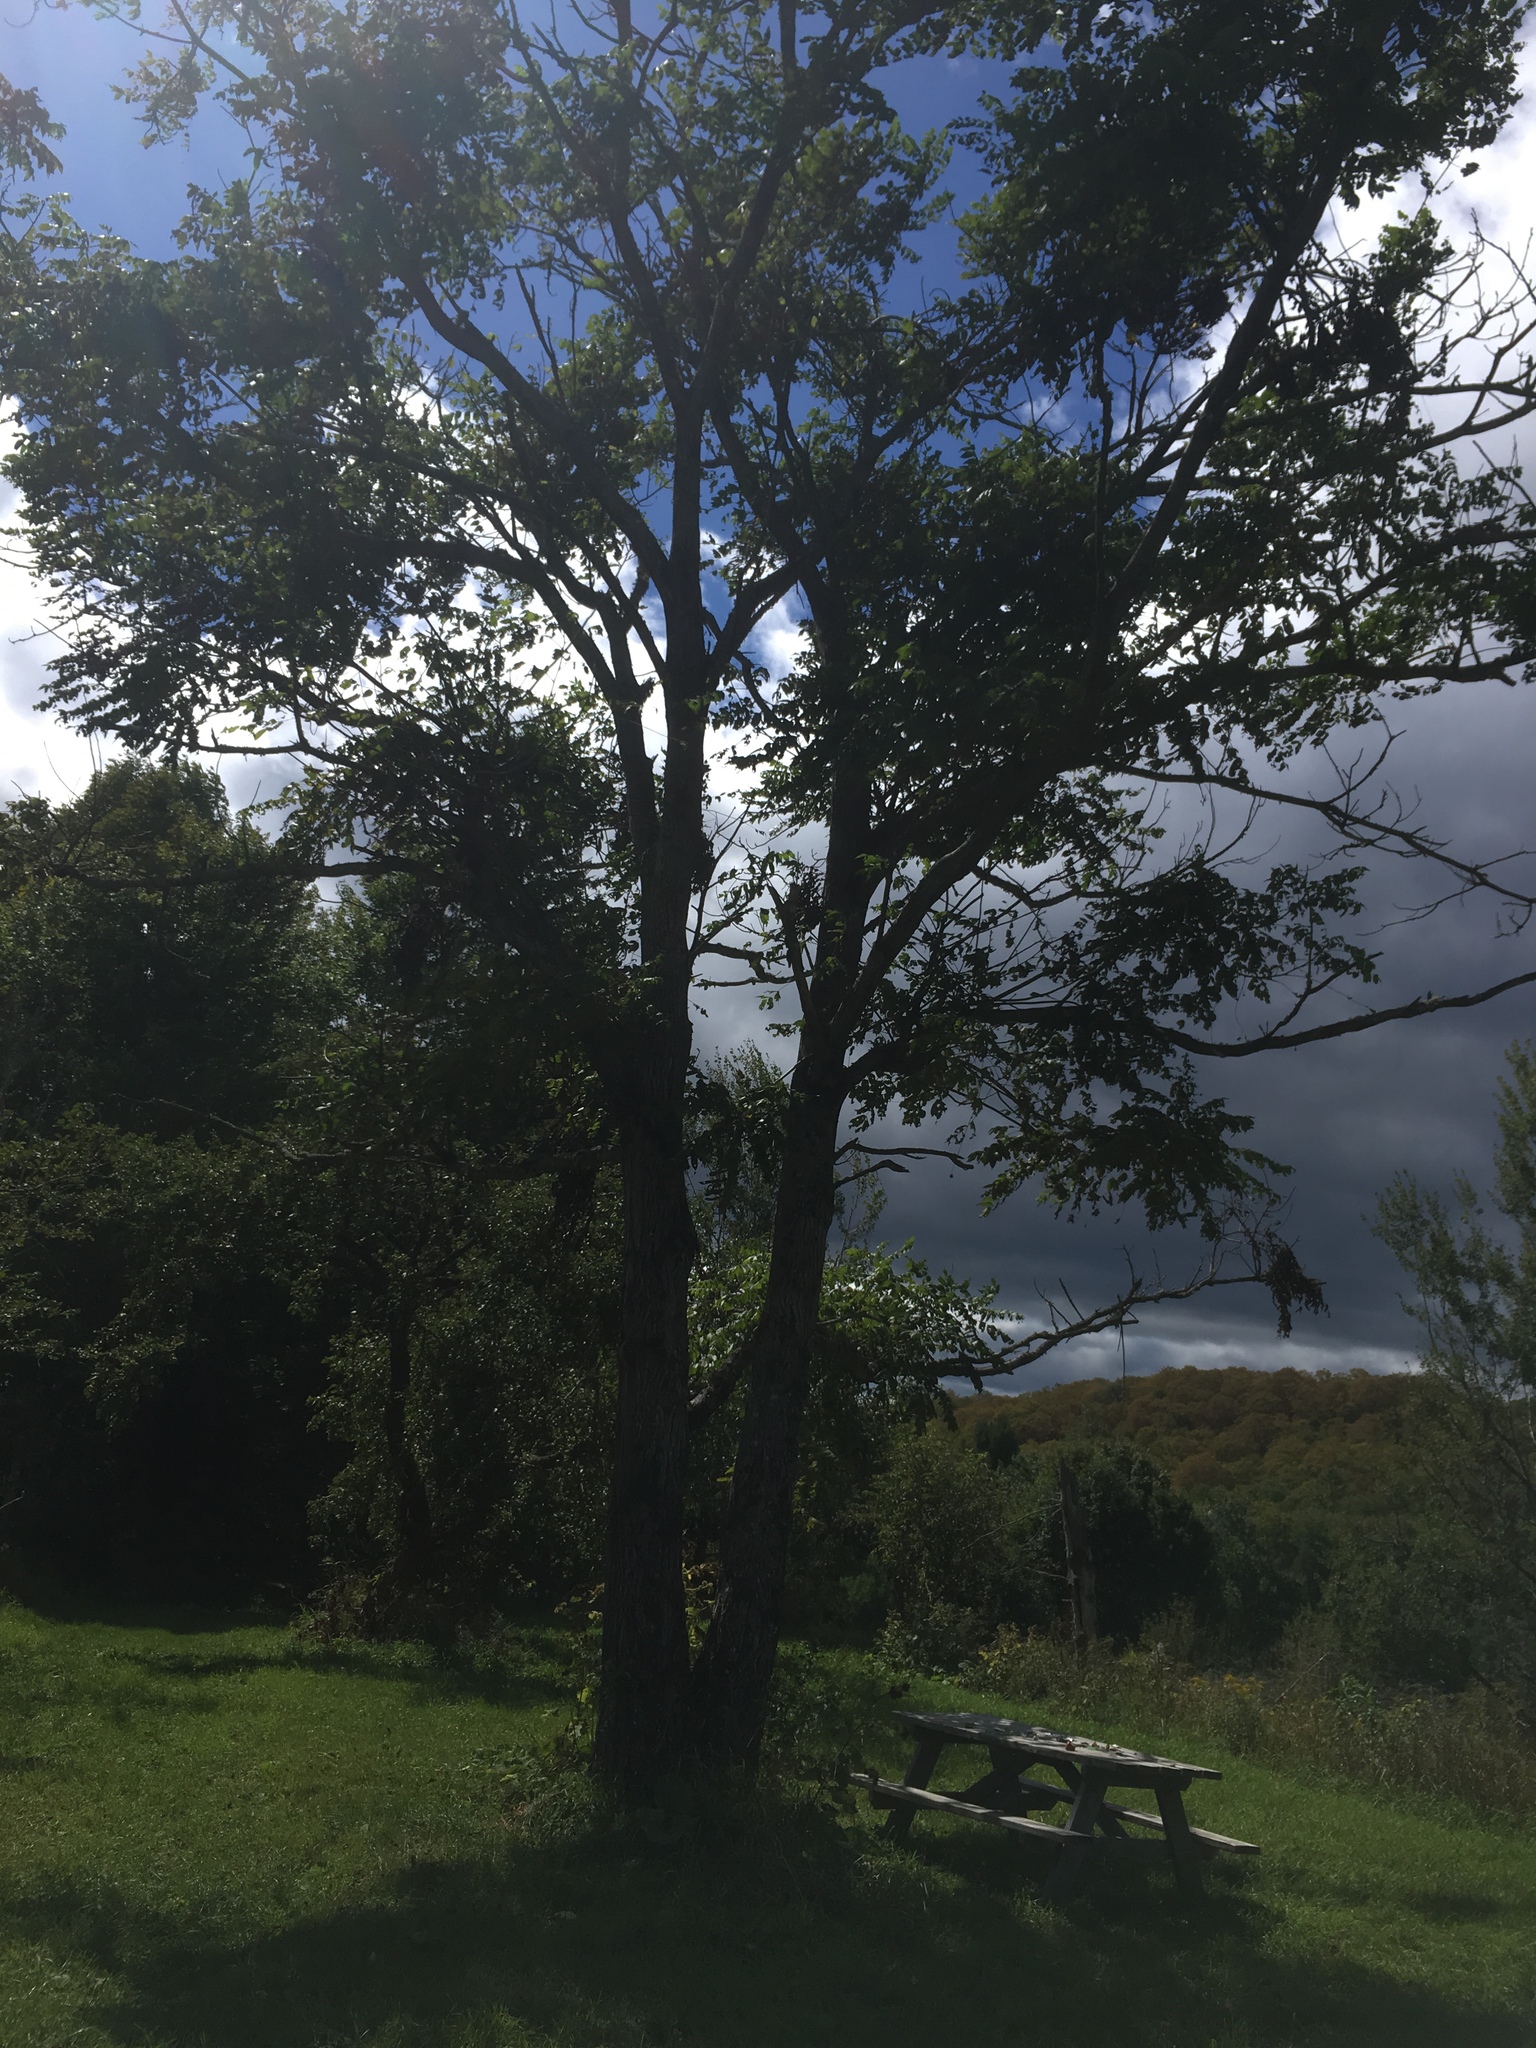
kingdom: Plantae
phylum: Tracheophyta
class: Magnoliopsida
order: Fagales
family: Juglandaceae
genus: Juglans
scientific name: Juglans cinerea
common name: Butternut
